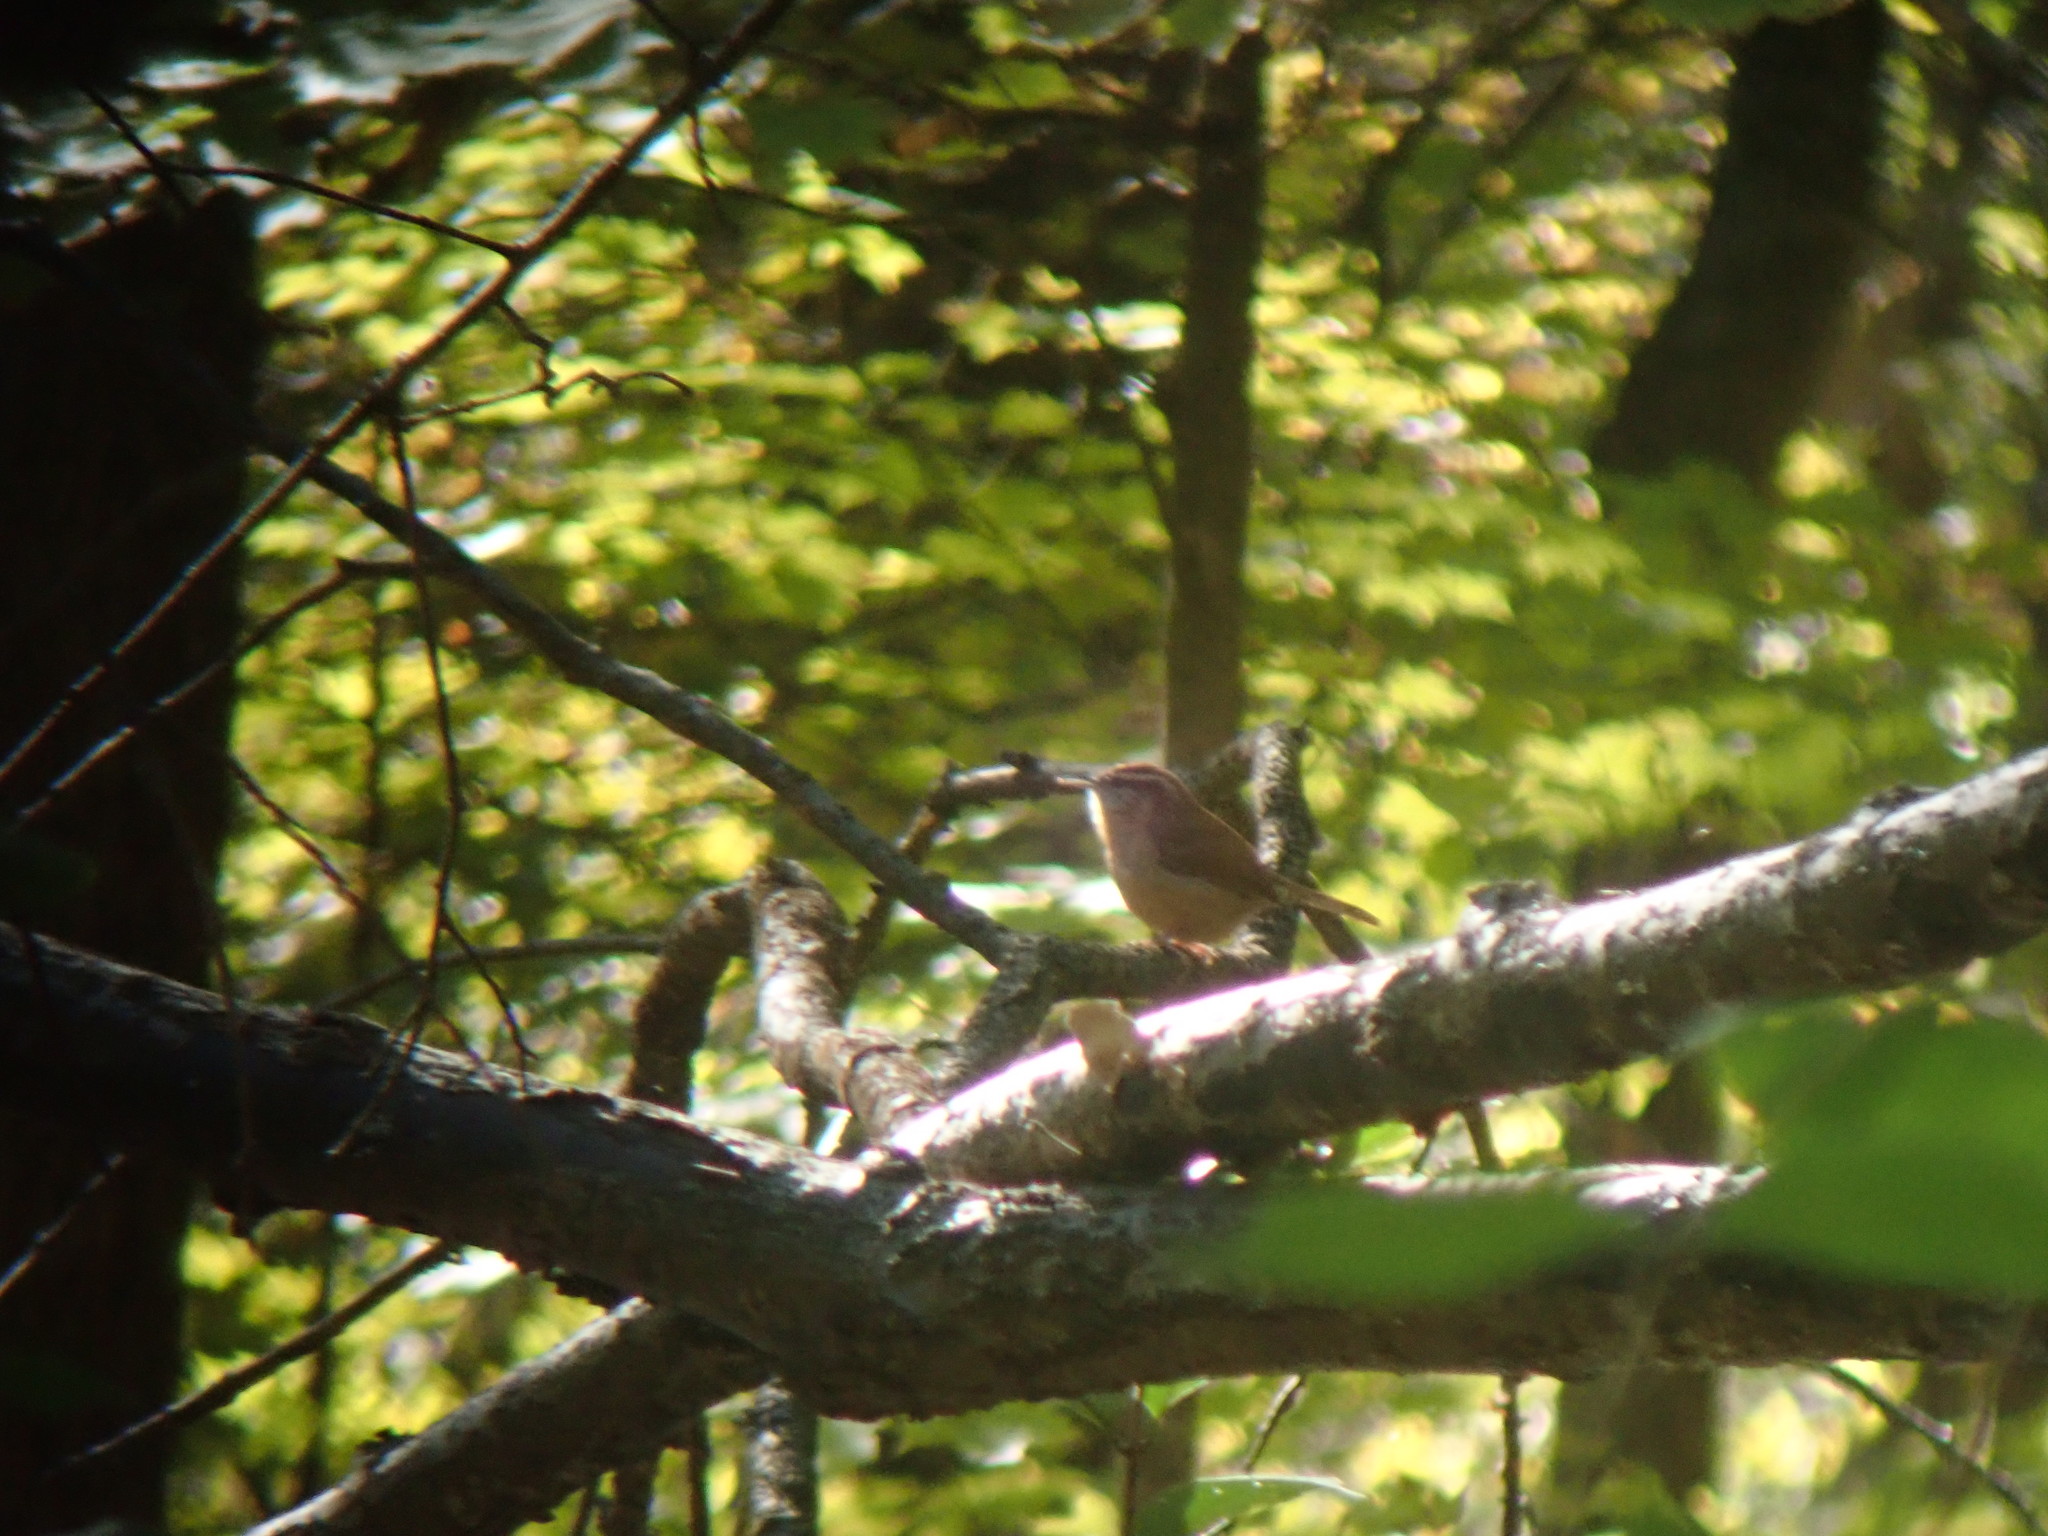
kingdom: Animalia
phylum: Chordata
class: Aves
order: Passeriformes
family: Troglodytidae
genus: Thryothorus
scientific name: Thryothorus ludovicianus
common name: Carolina wren
